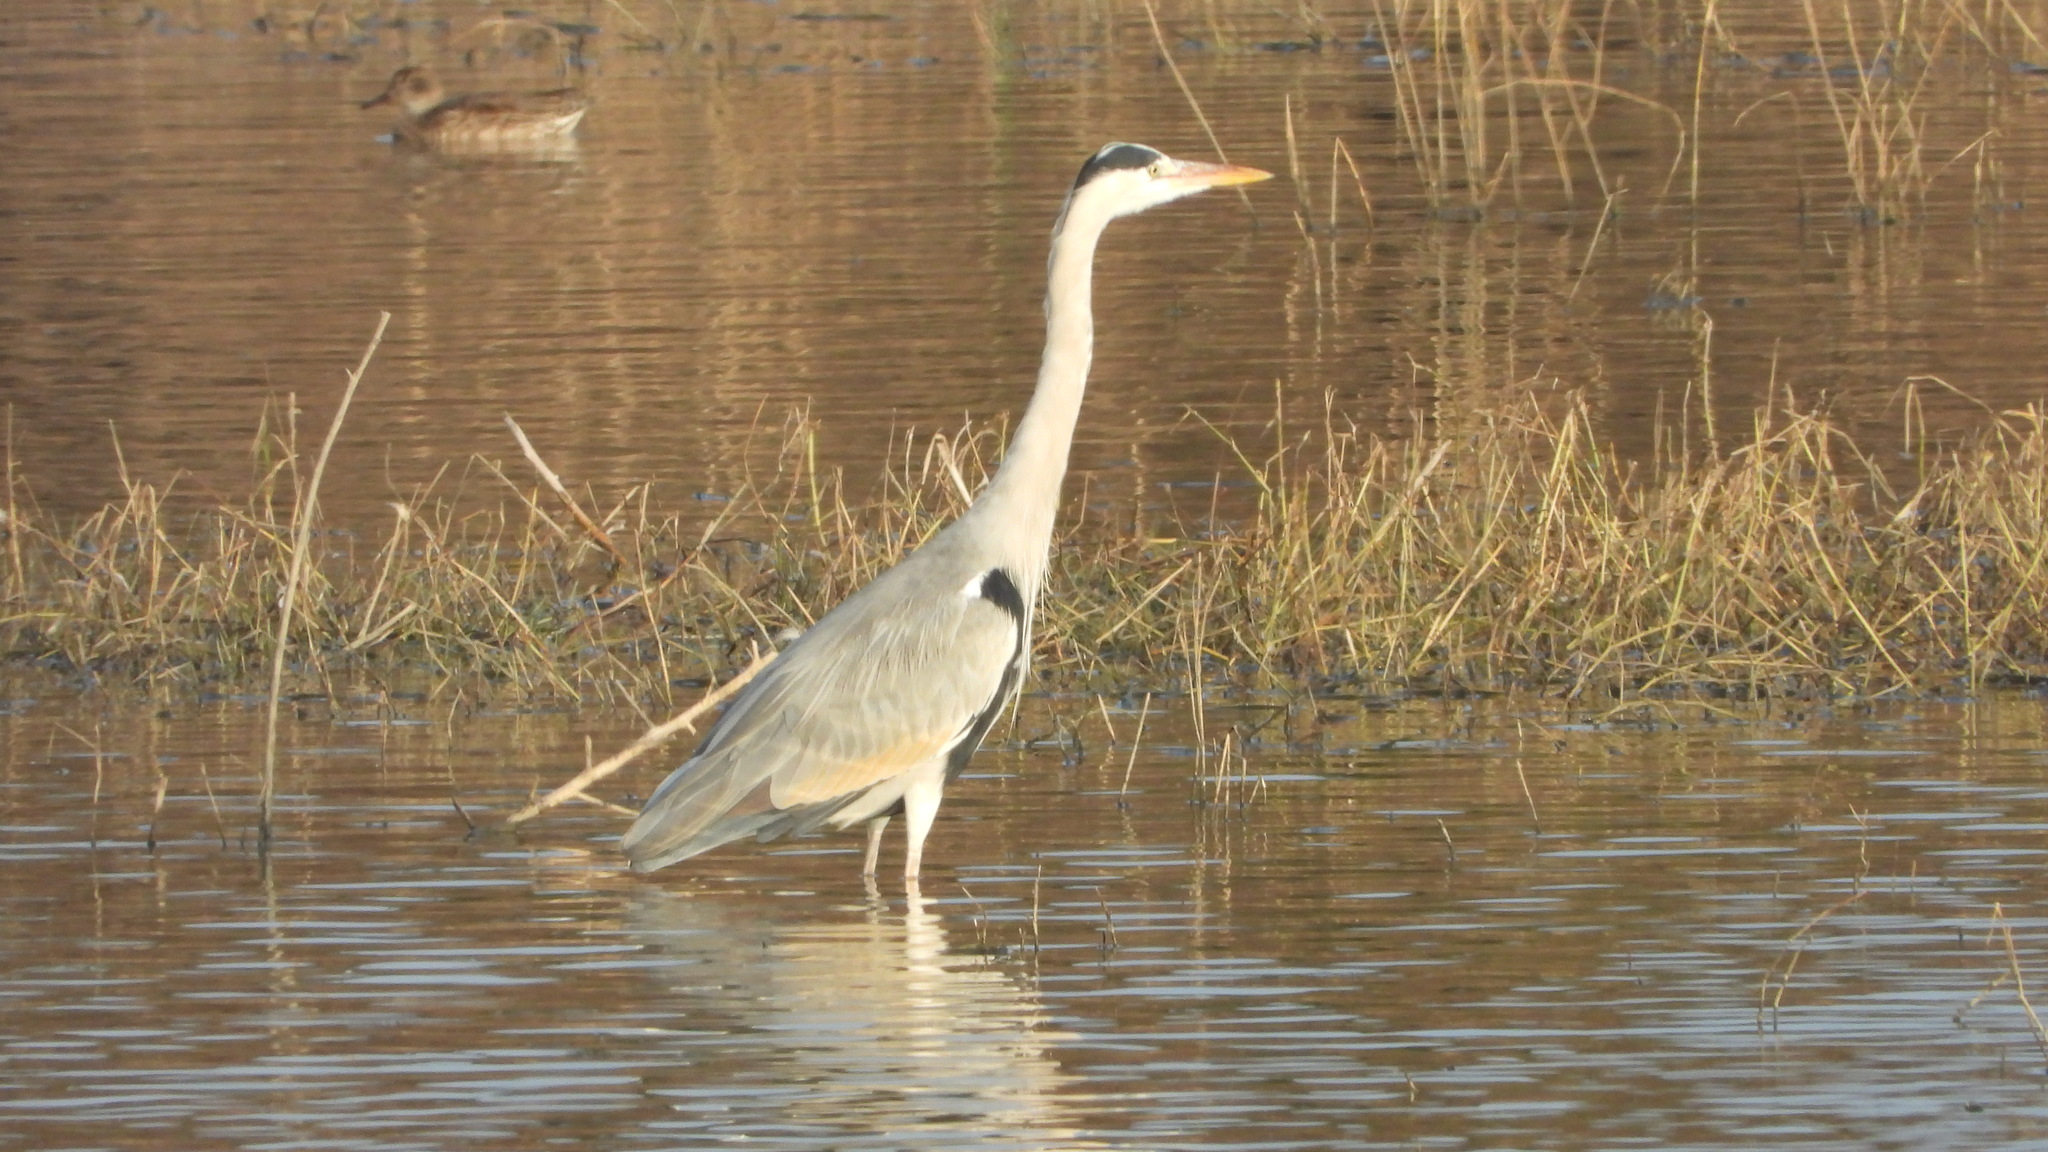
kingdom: Animalia
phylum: Chordata
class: Aves
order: Pelecaniformes
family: Ardeidae
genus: Ardea
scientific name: Ardea cinerea
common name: Grey heron
